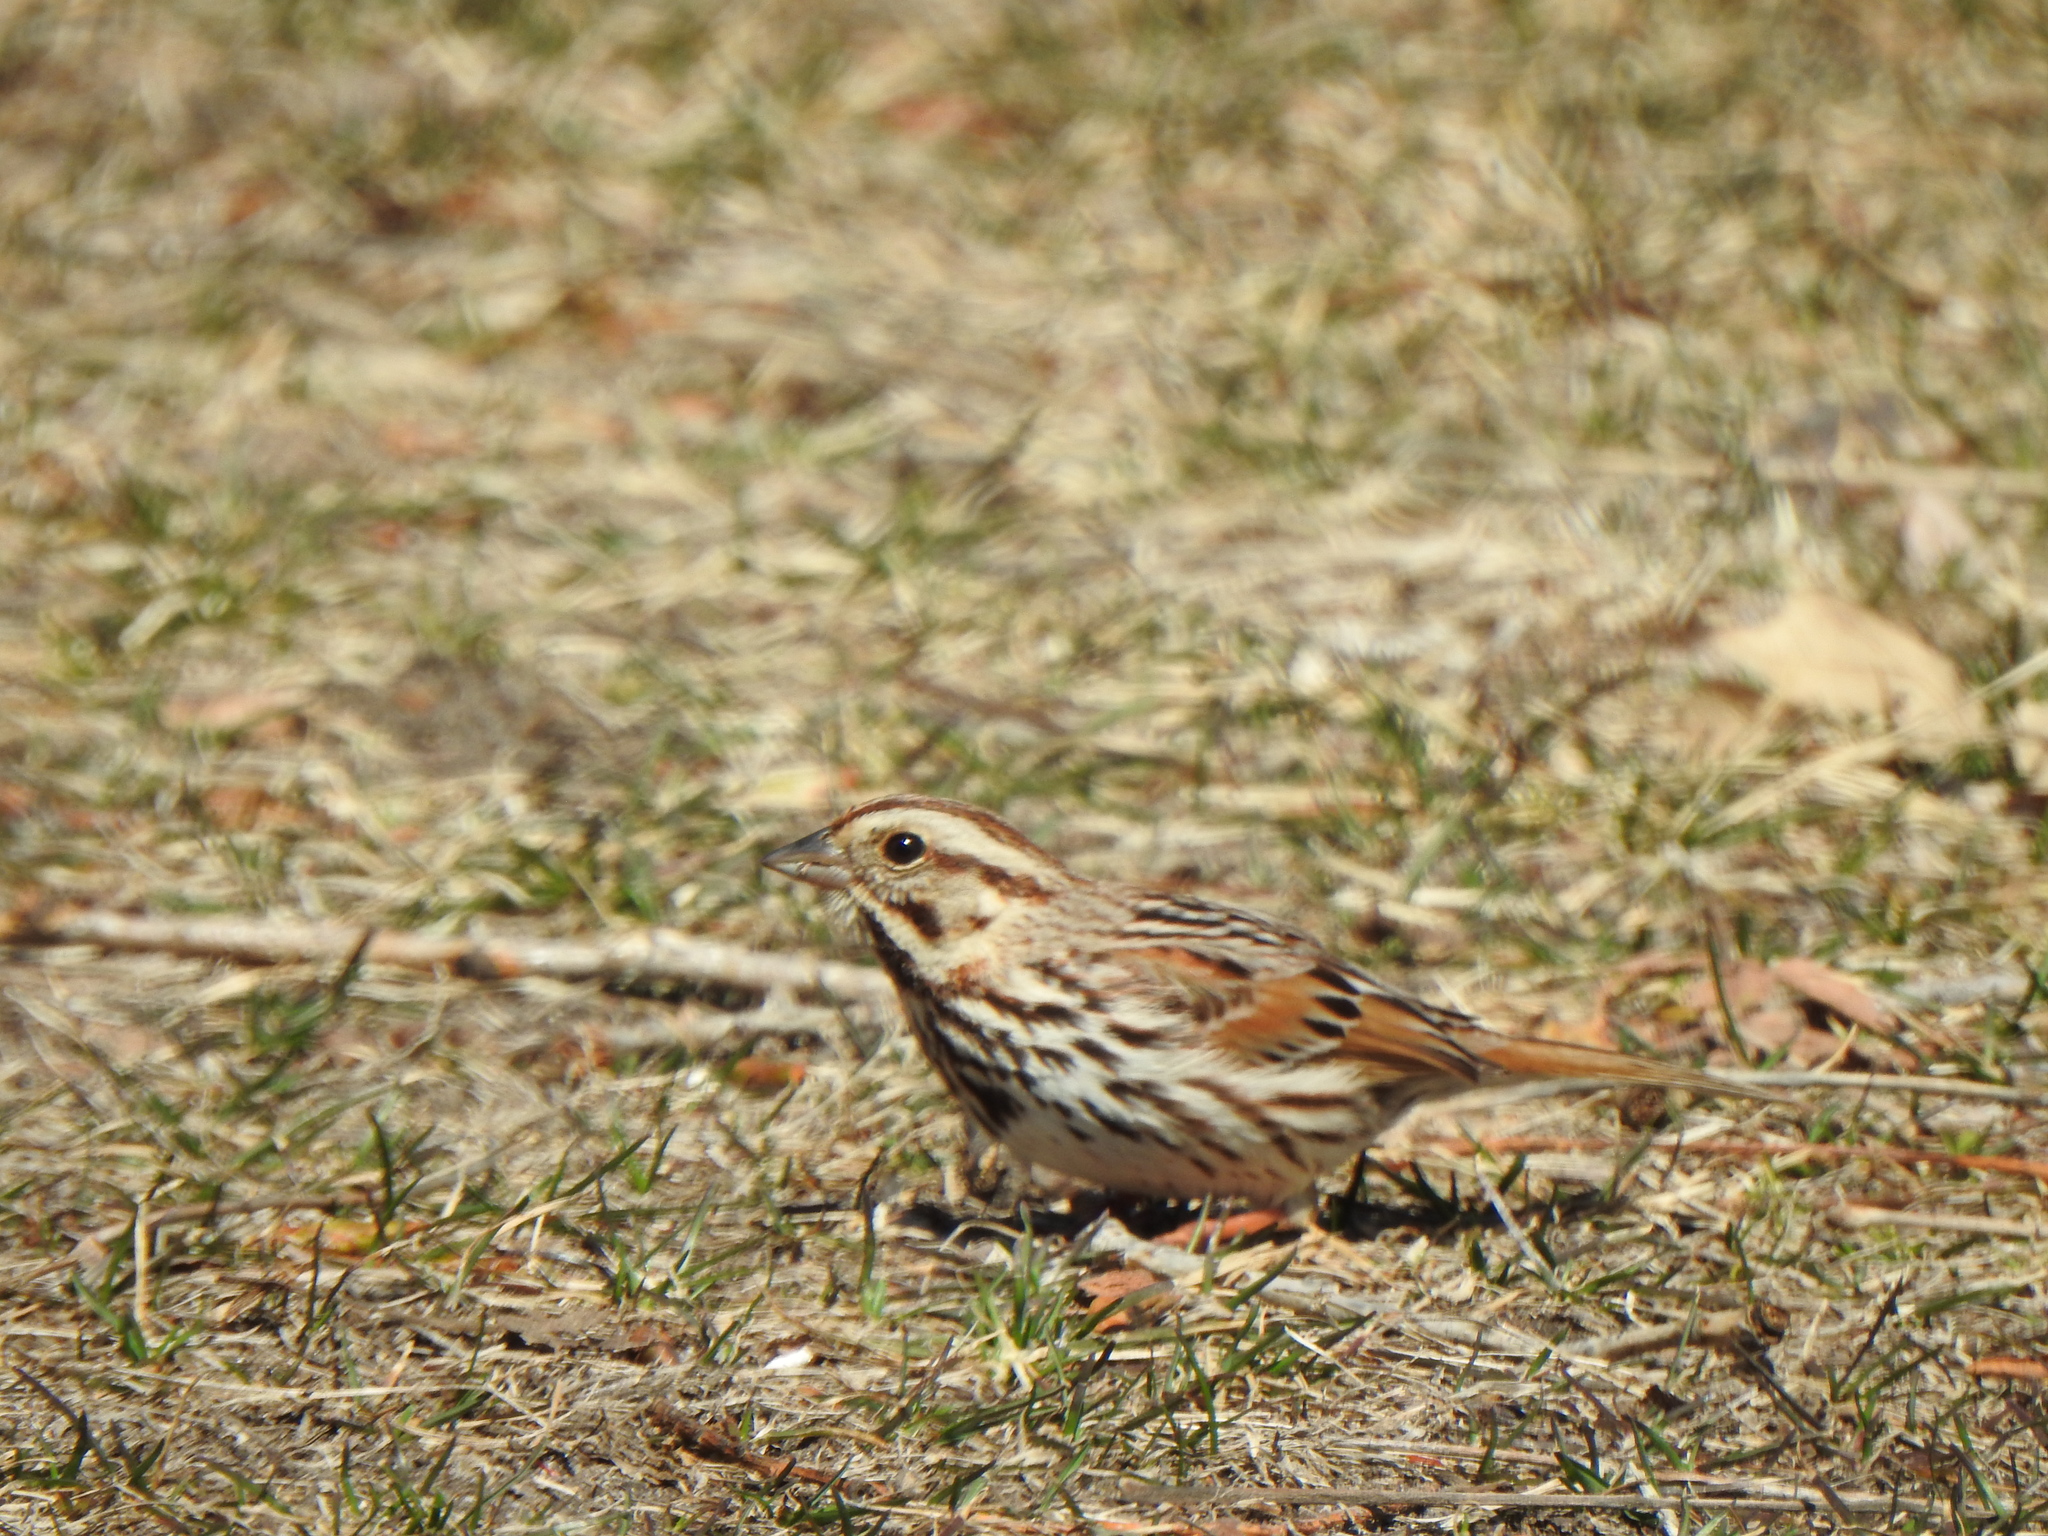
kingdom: Animalia
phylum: Chordata
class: Aves
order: Passeriformes
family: Passerellidae
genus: Melospiza
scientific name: Melospiza melodia
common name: Song sparrow
